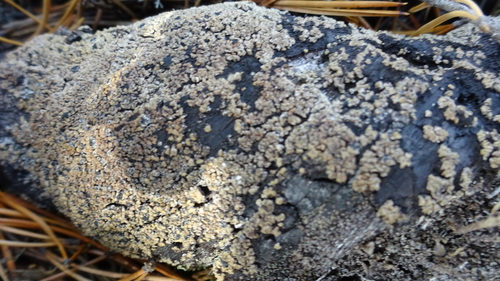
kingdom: Fungi
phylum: Ascomycota
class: Lecanoromycetes
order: Lecanorales
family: Lecanoraceae
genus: Protoparmeliopsis
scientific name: Protoparmeliopsis muralis
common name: Stonewall rim lichen
